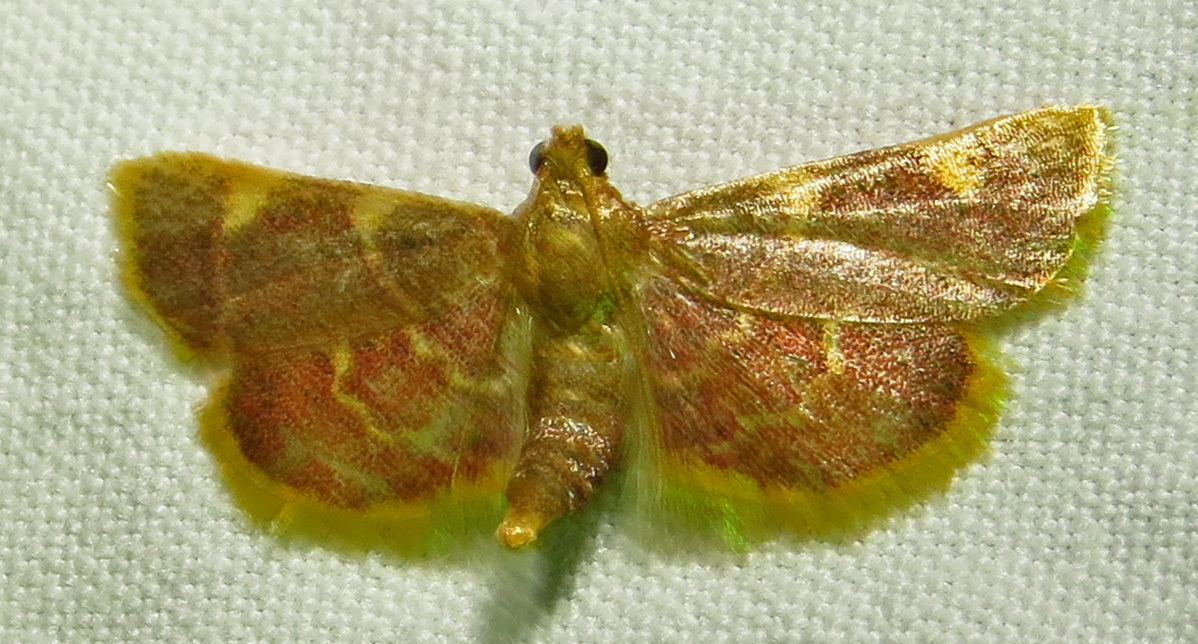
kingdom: Animalia
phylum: Arthropoda
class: Insecta
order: Lepidoptera
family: Pyralidae
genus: Hypsopygia
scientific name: Hypsopygia olinalis
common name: Yellow-fringed dolichomia moth
